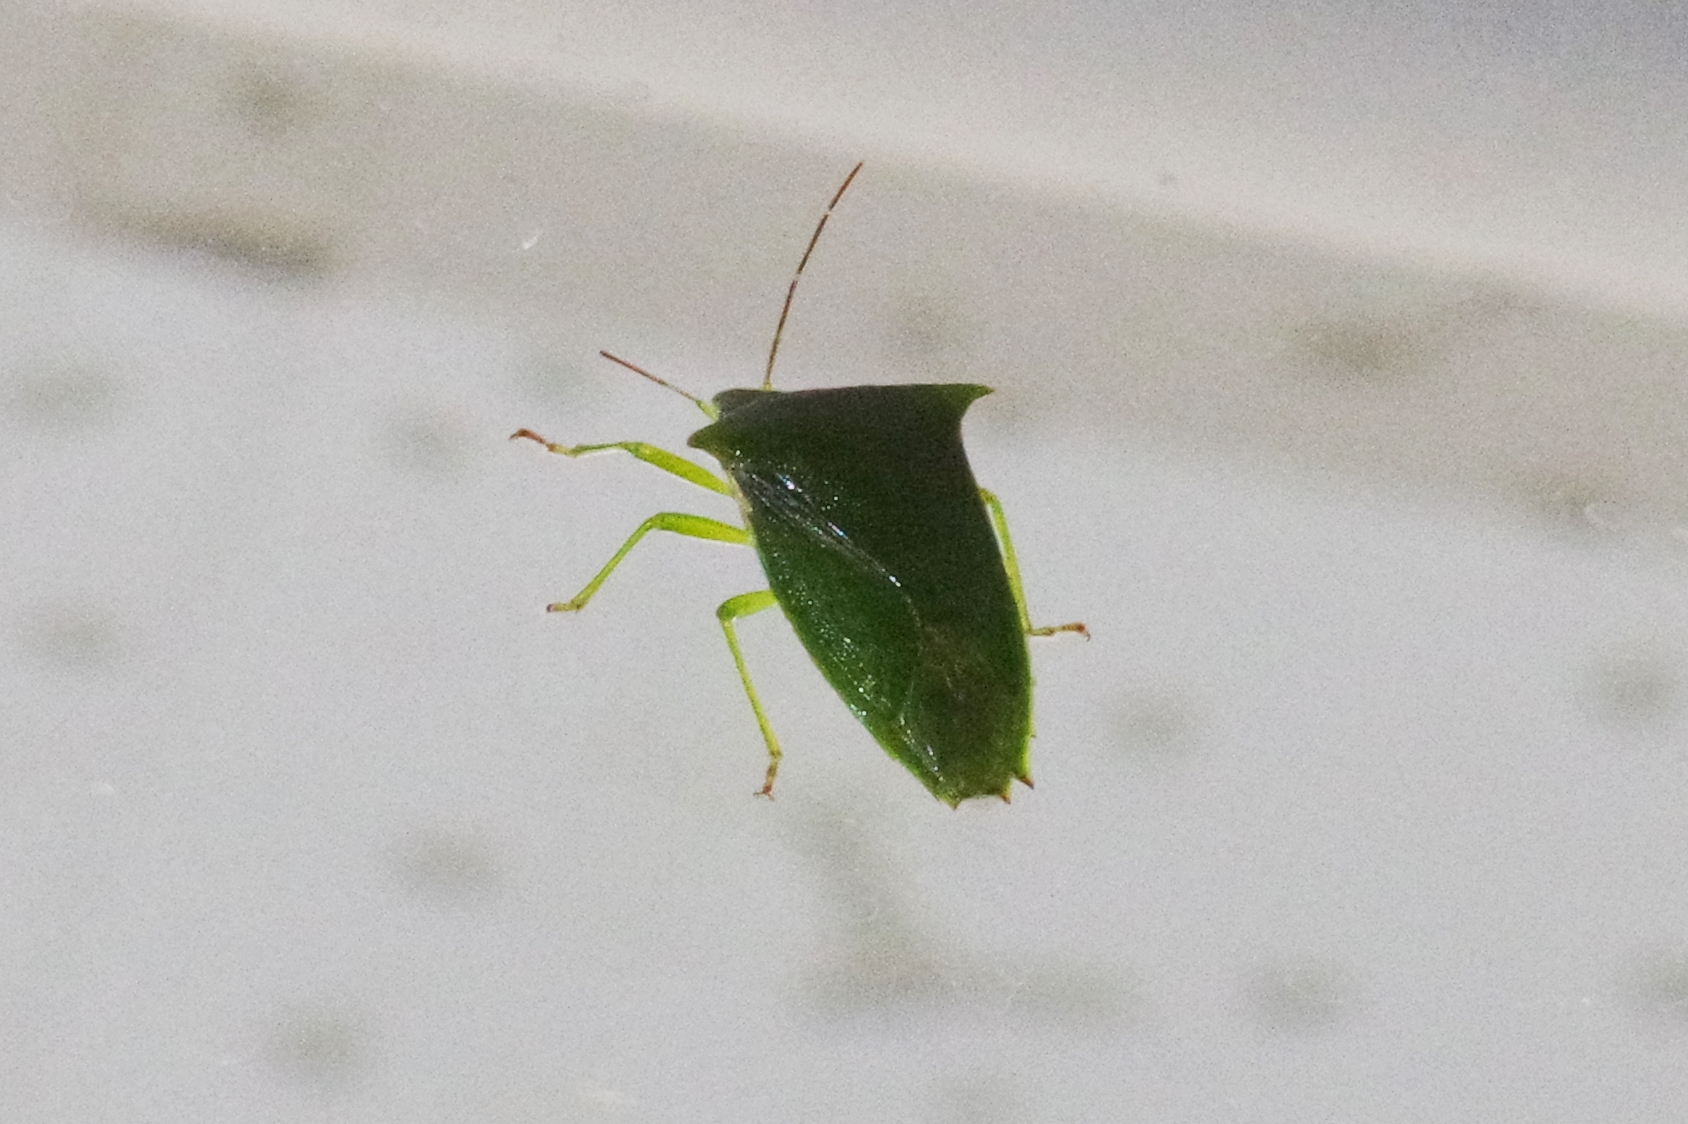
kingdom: Animalia
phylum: Arthropoda
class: Insecta
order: Hemiptera
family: Pentatomidae
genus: Vitellus
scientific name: Vitellus
